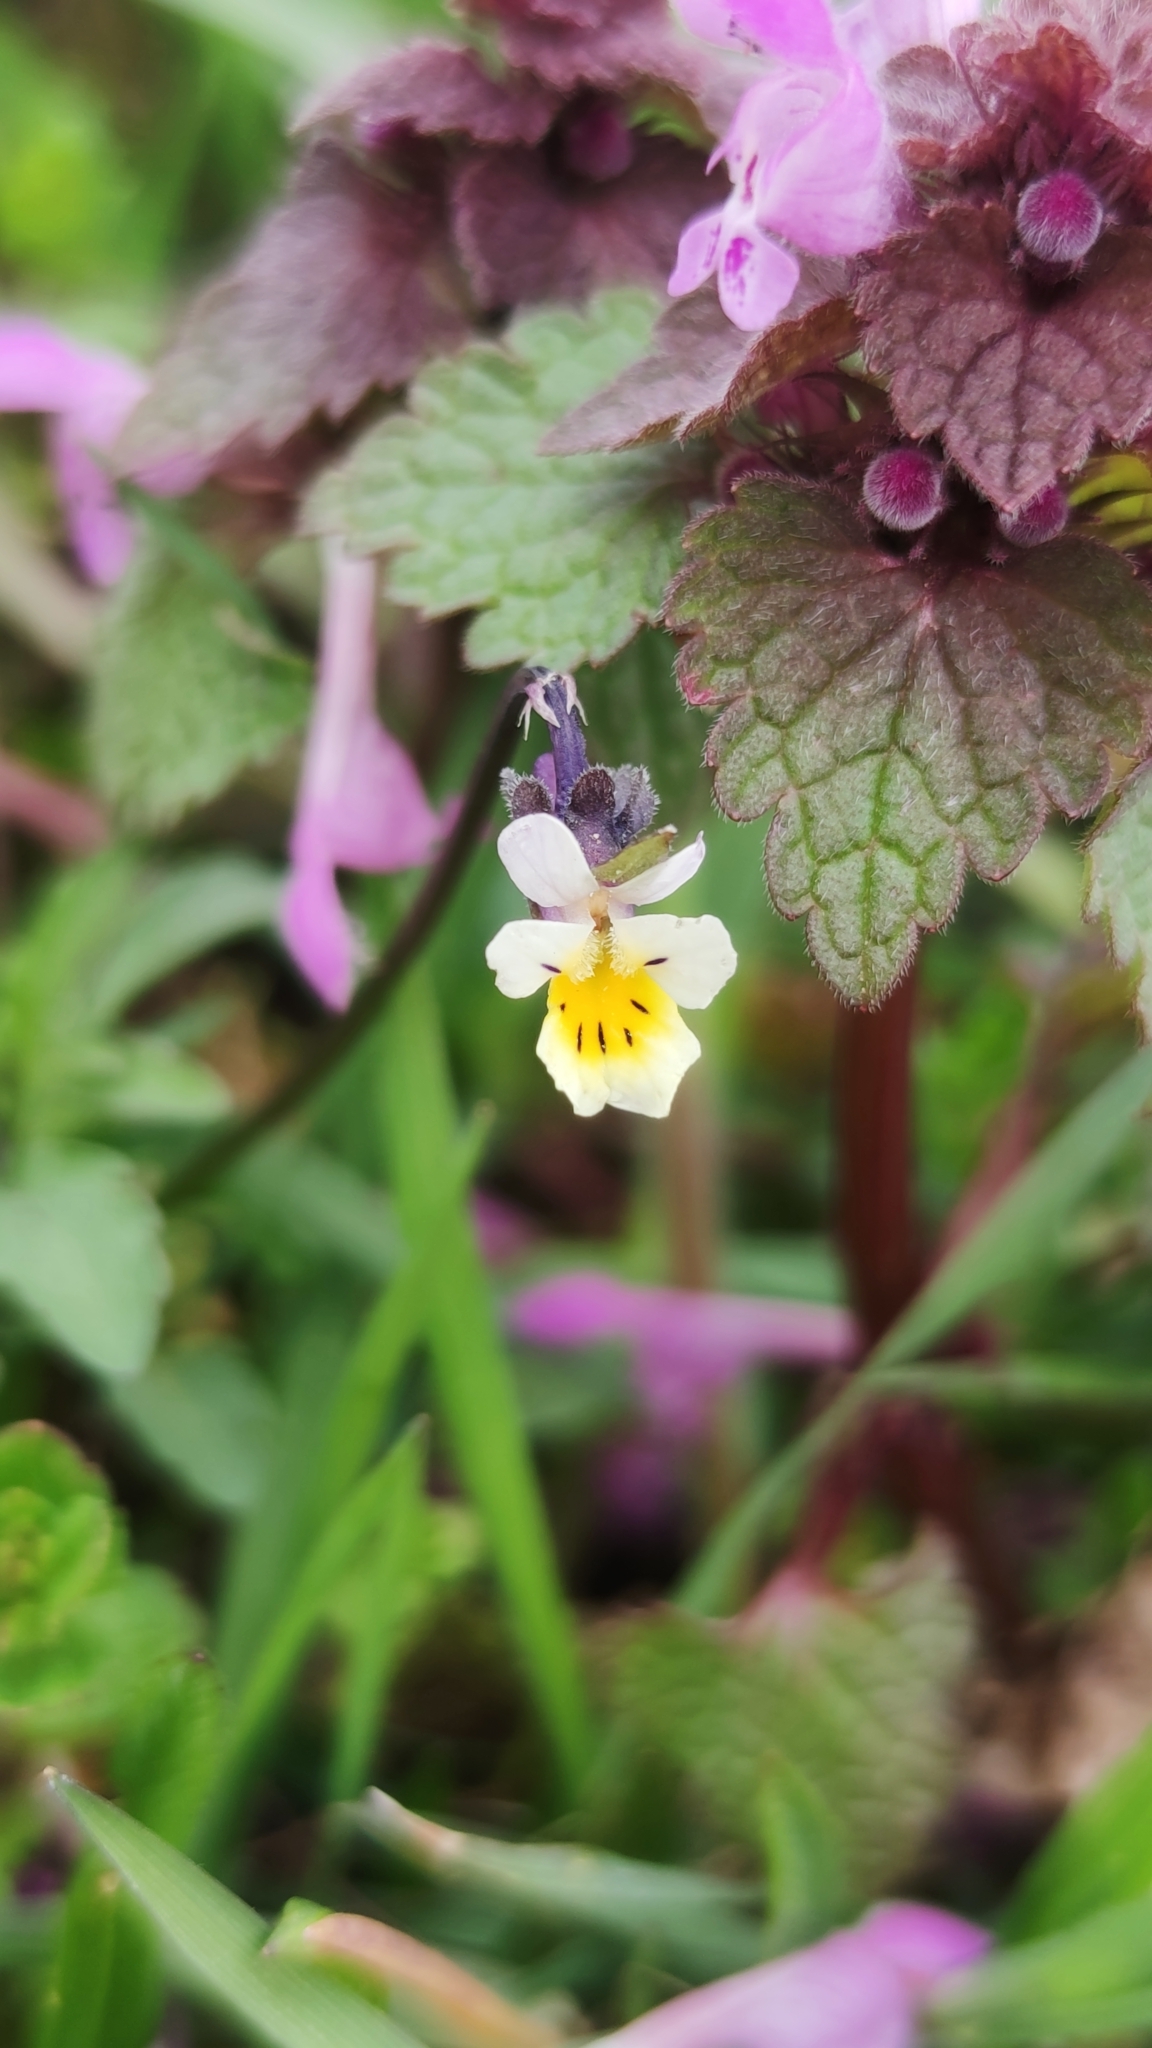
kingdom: Plantae
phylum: Tracheophyta
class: Magnoliopsida
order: Malpighiales
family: Violaceae
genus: Viola
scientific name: Viola arvensis
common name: Field pansy
